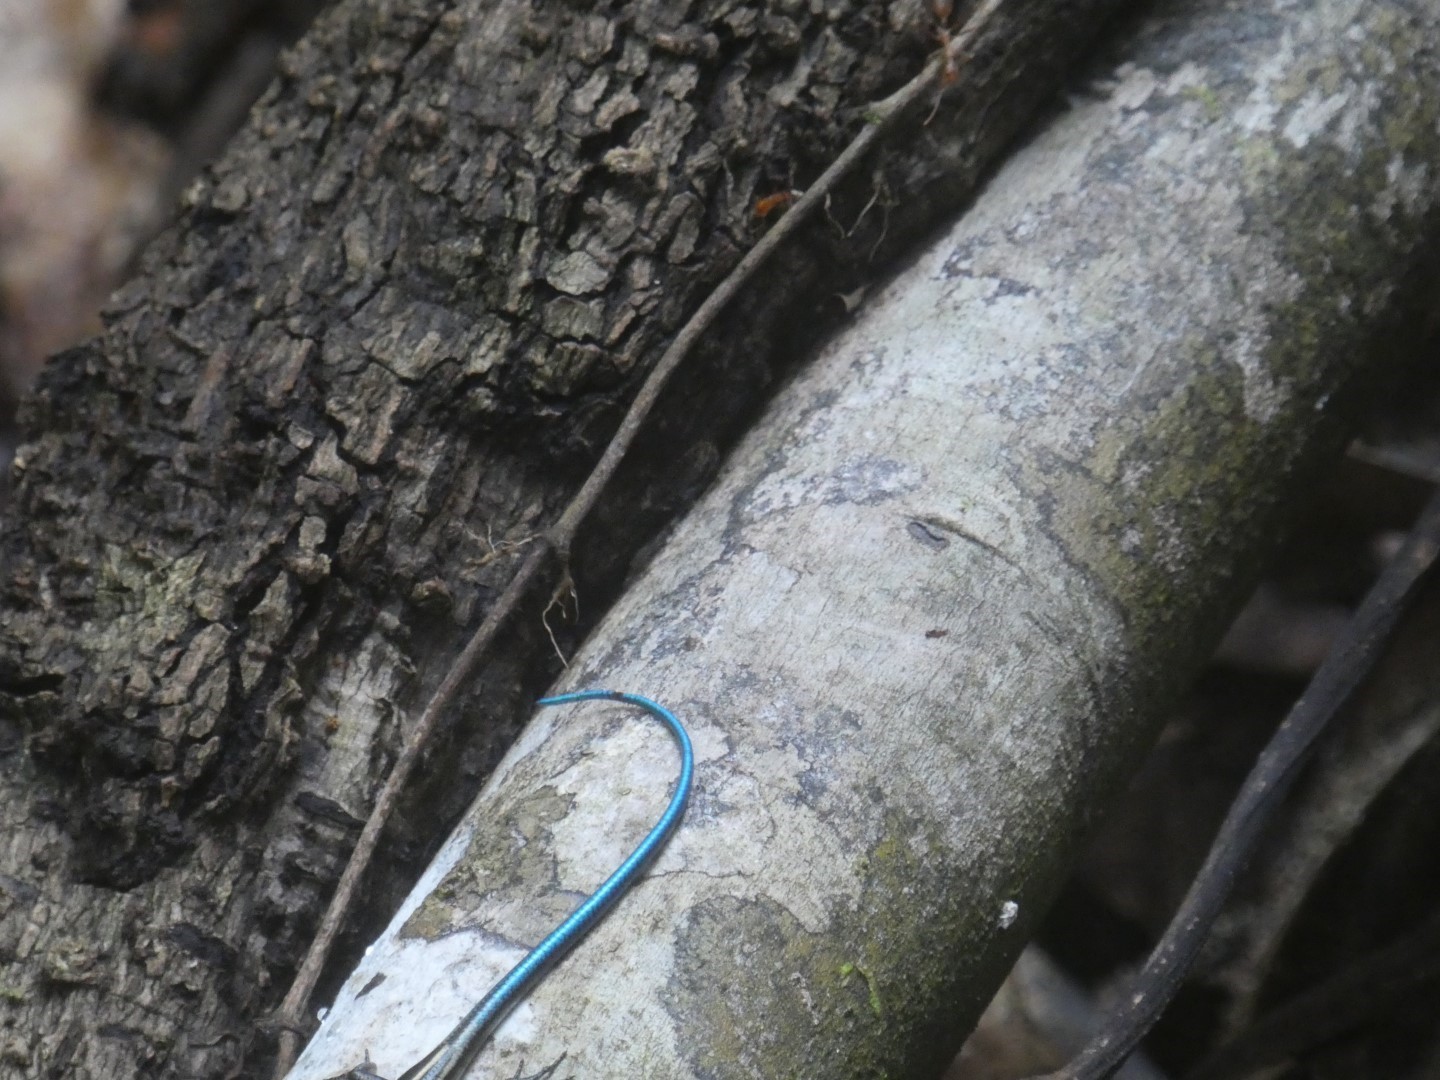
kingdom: Animalia
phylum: Chordata
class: Squamata
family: Scincidae
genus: Emoia
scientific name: Emoia caeruleocauda
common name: Pacific bluetail skink
